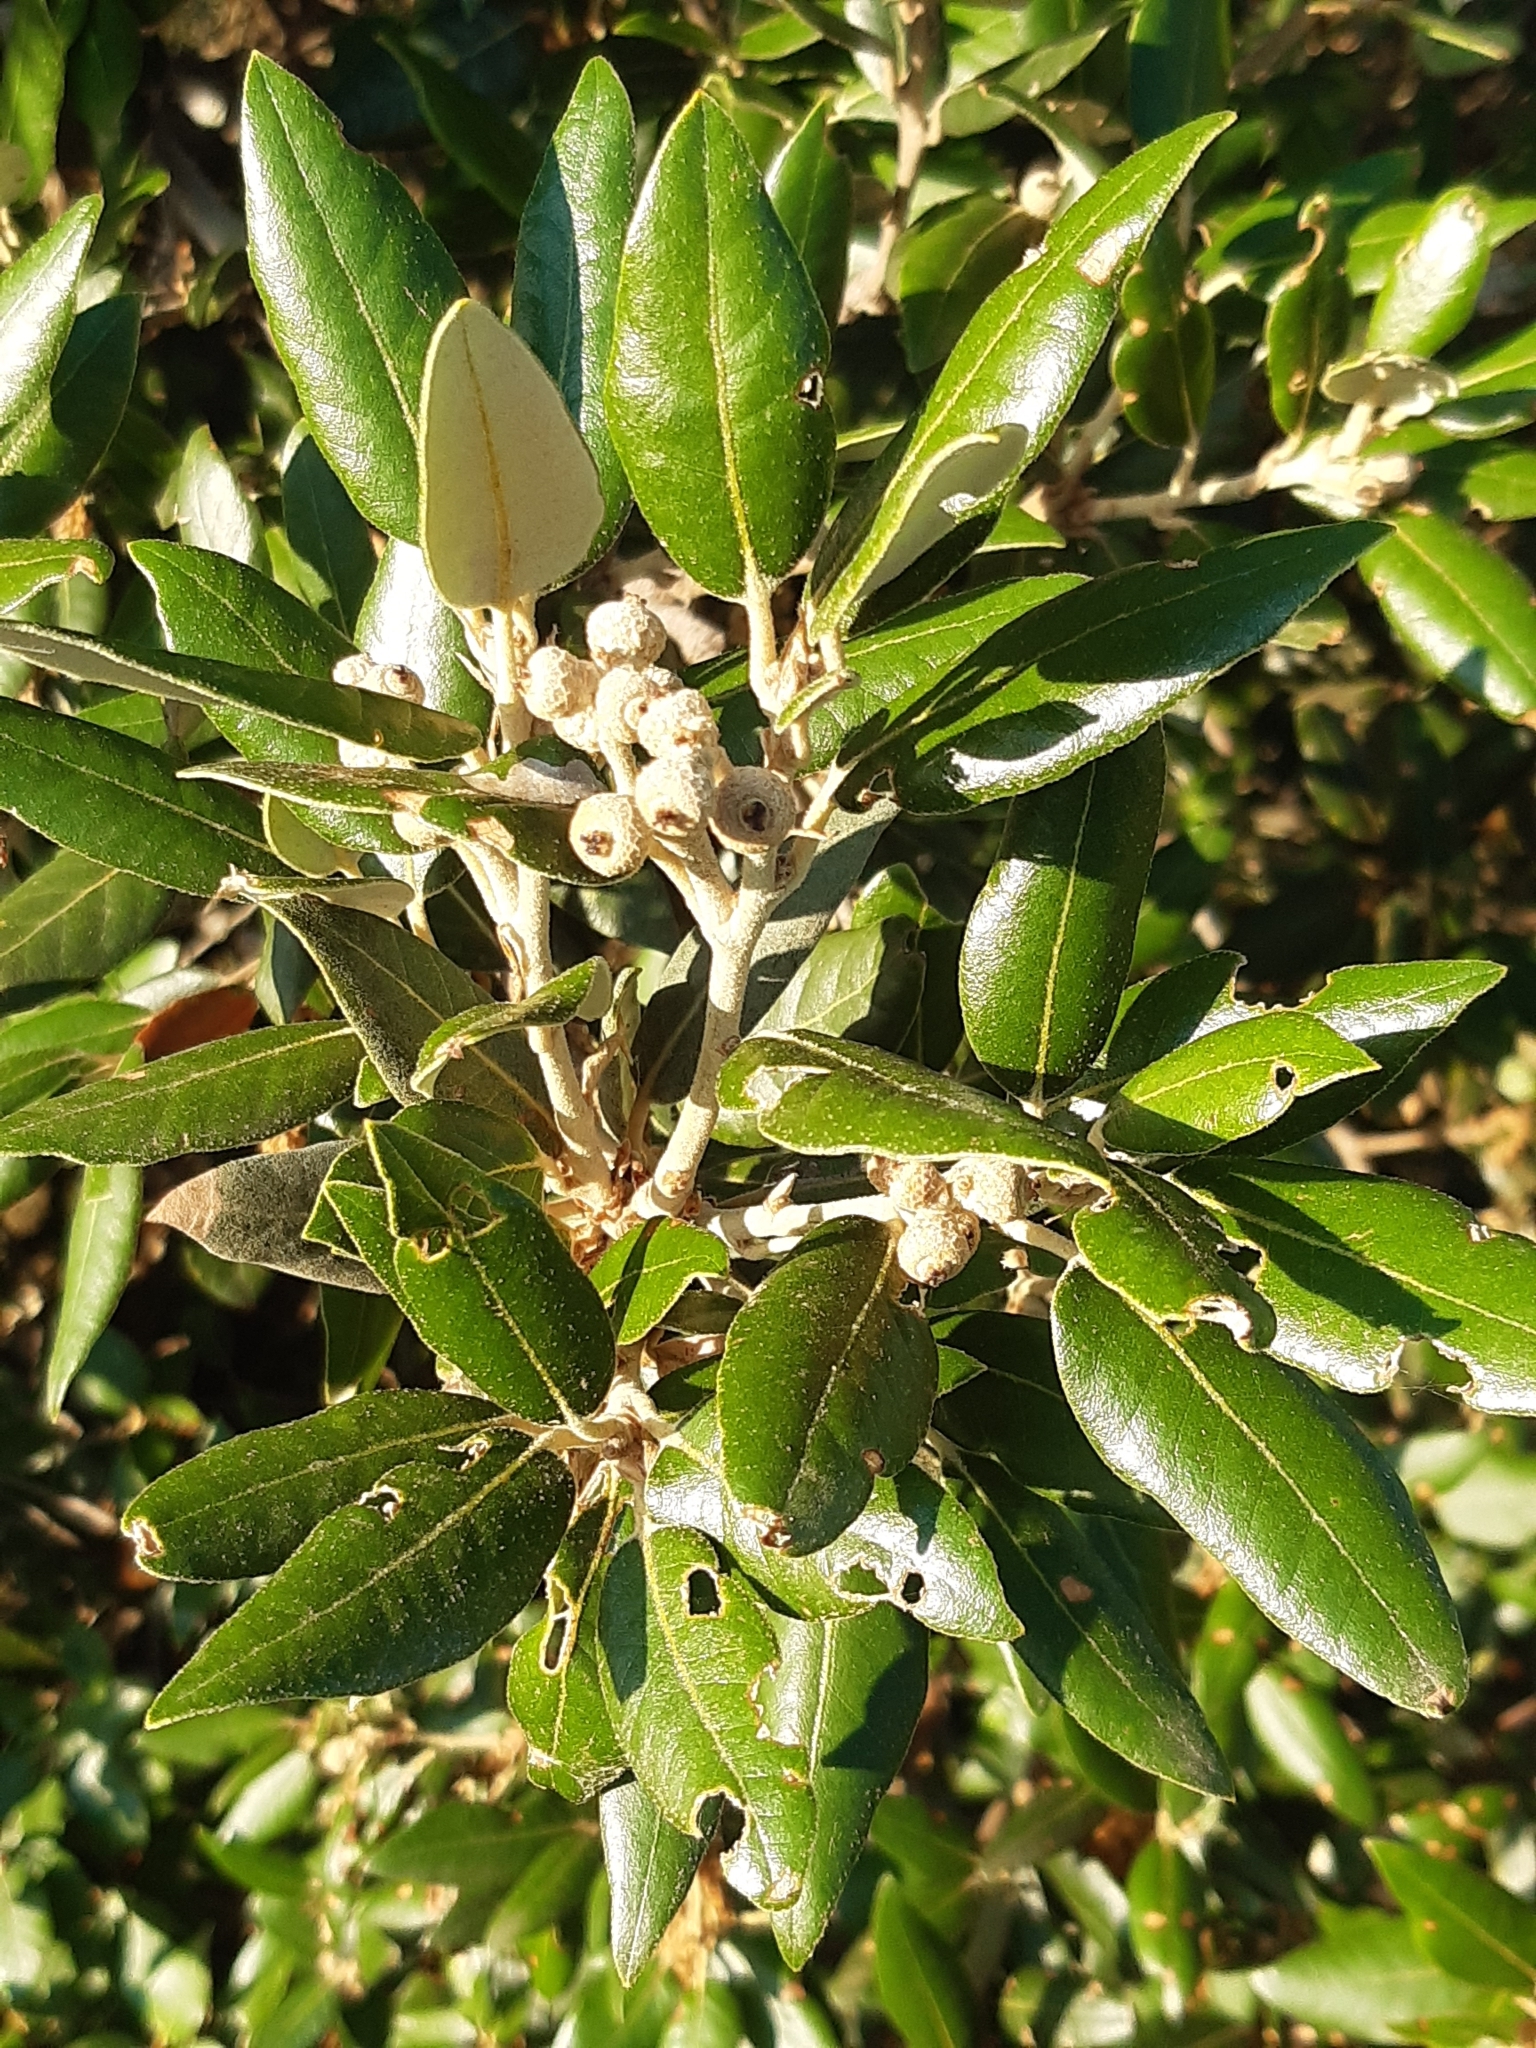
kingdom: Plantae
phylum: Tracheophyta
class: Magnoliopsida
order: Fagales
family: Fagaceae
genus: Quercus
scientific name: Quercus ilex
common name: Evergreen oak
